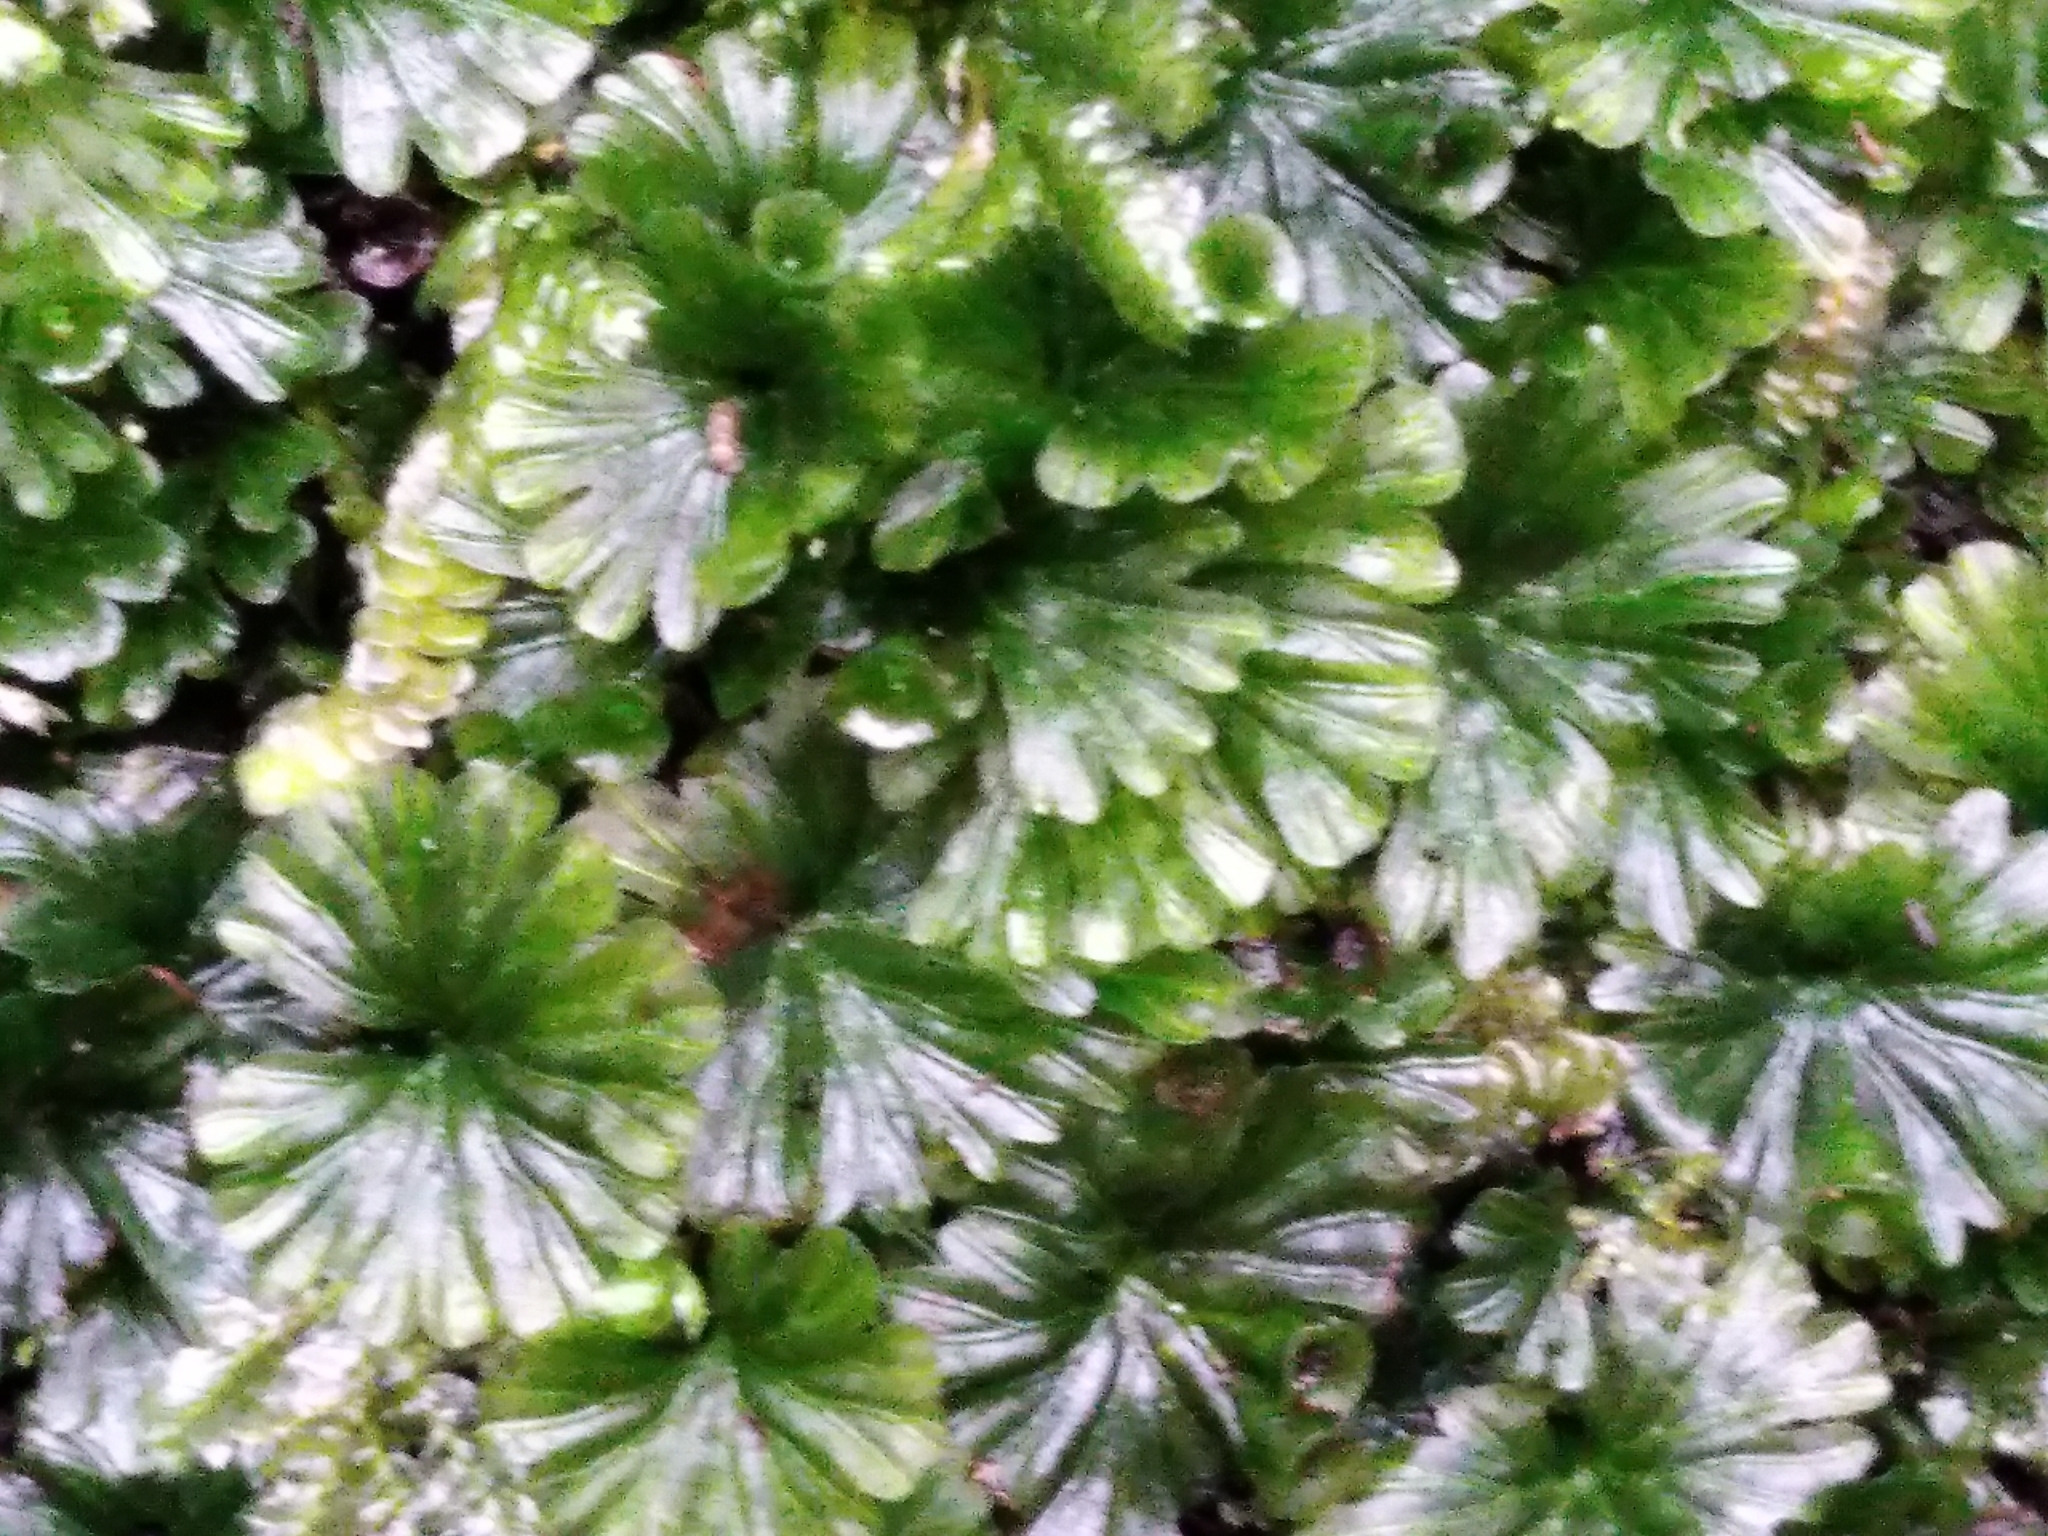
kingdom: Plantae
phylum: Tracheophyta
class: Polypodiopsida
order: Hymenophyllales
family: Hymenophyllaceae
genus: Crepidomanes
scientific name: Crepidomanes saxifragoides
